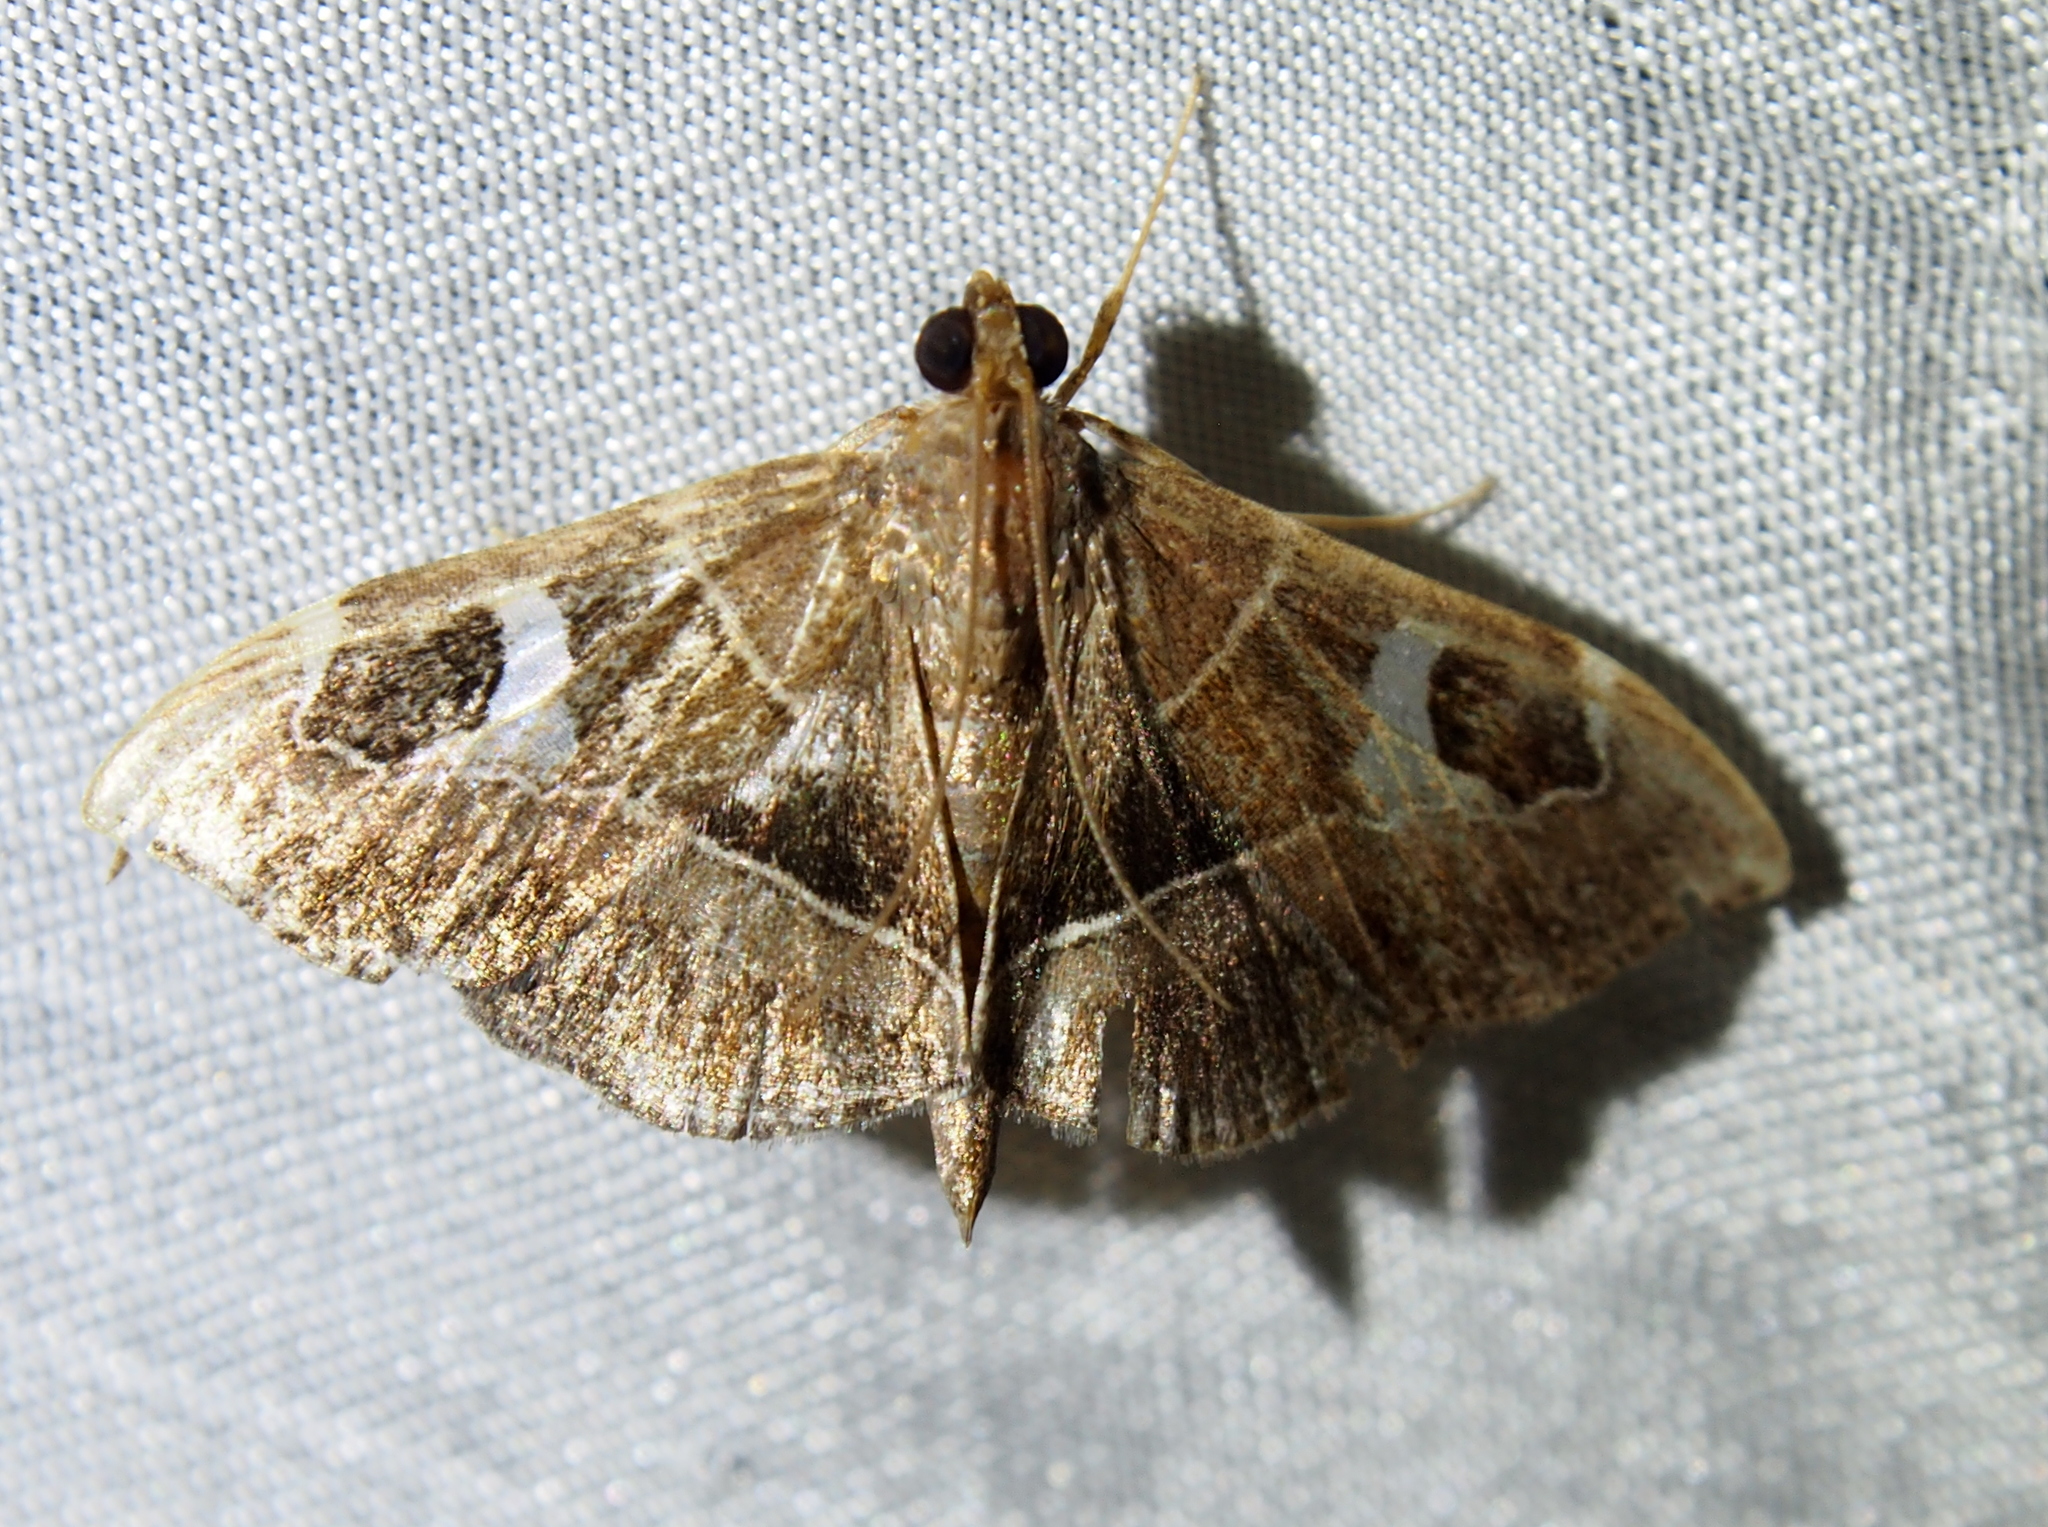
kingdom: Animalia
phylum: Arthropoda
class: Insecta
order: Lepidoptera
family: Crambidae
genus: Lamprosema
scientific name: Lamprosema cayugalis
